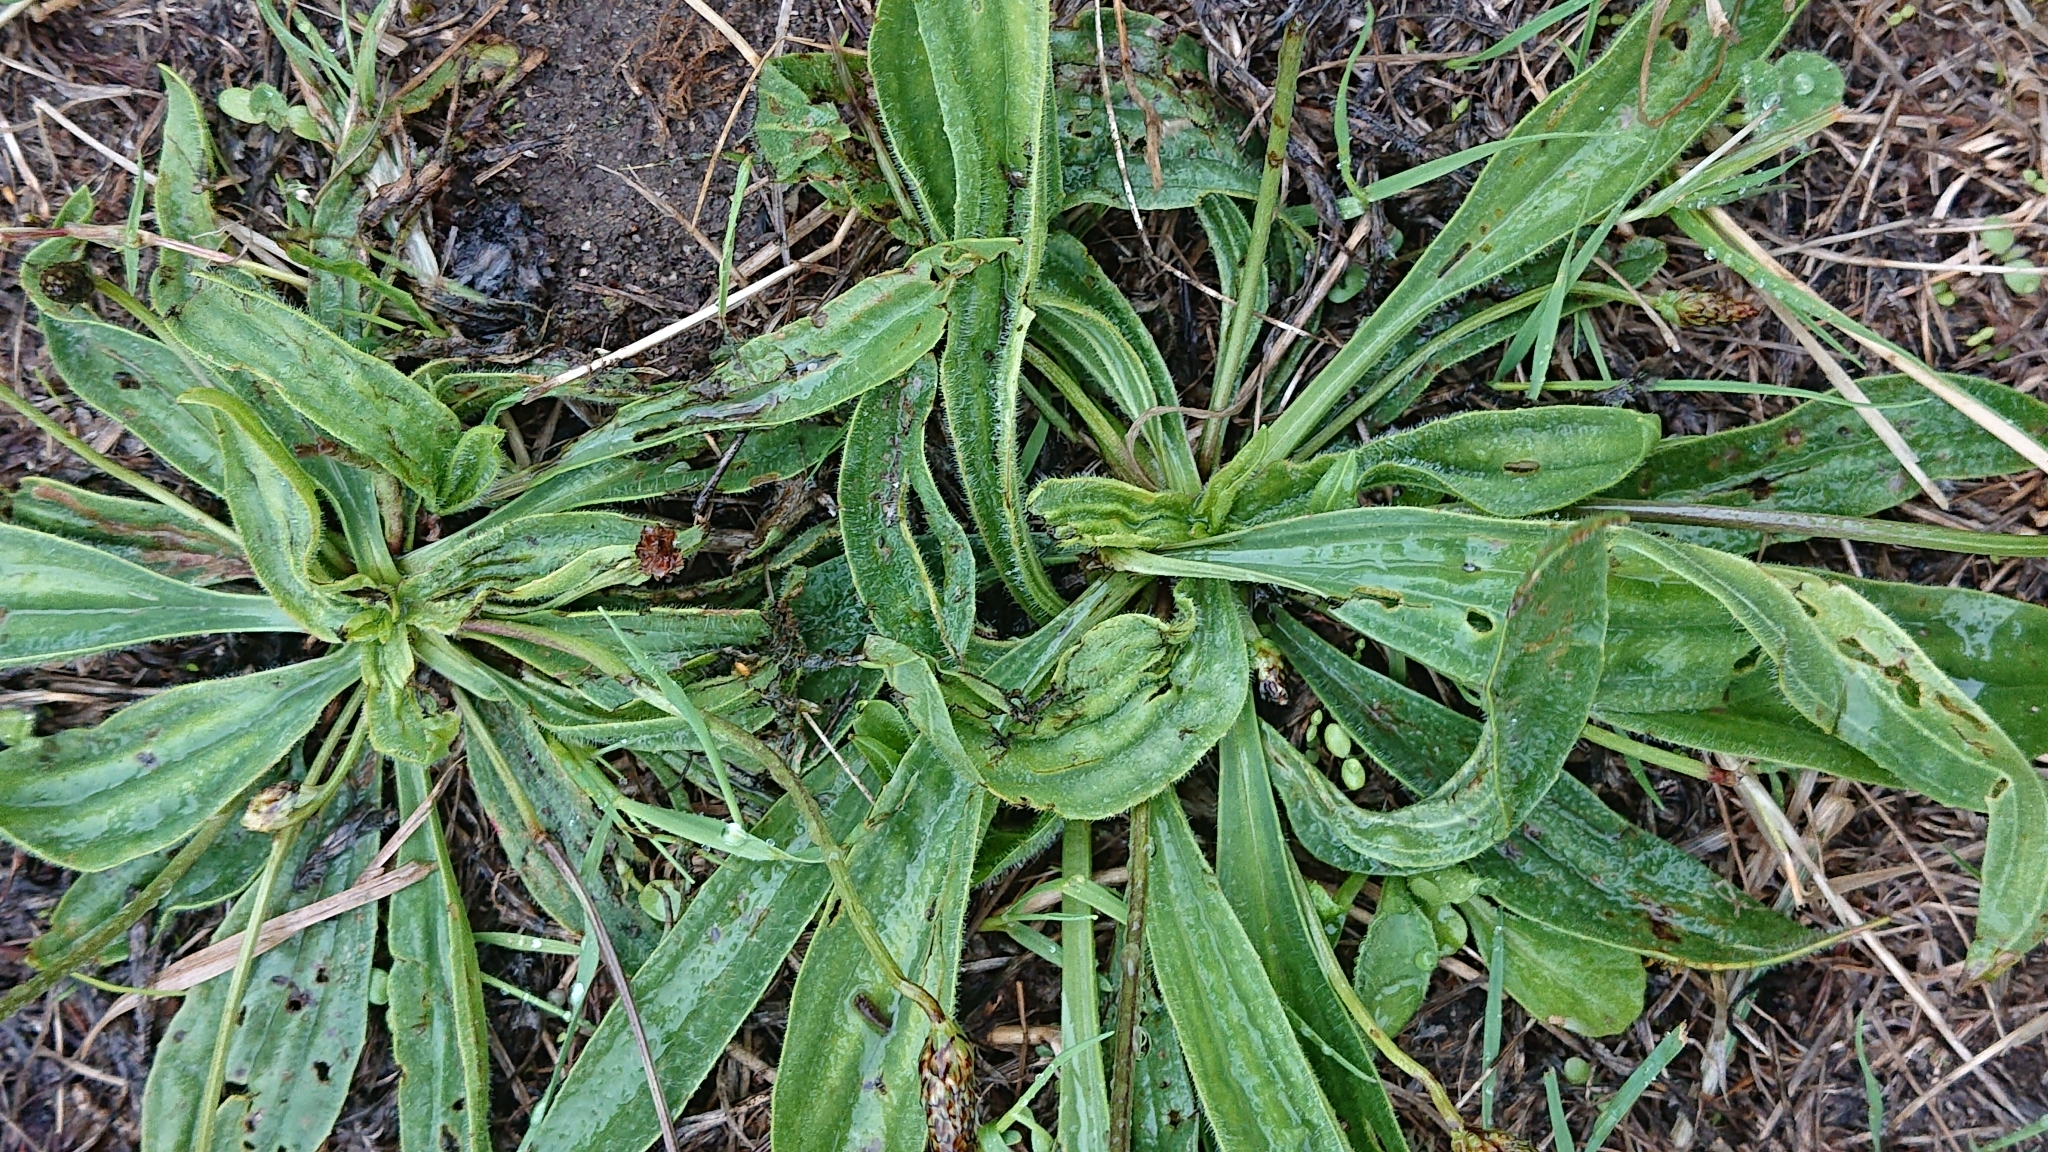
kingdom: Plantae
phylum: Tracheophyta
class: Magnoliopsida
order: Lamiales
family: Plantaginaceae
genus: Plantago
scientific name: Plantago lanceolata
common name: Ribwort plantain
